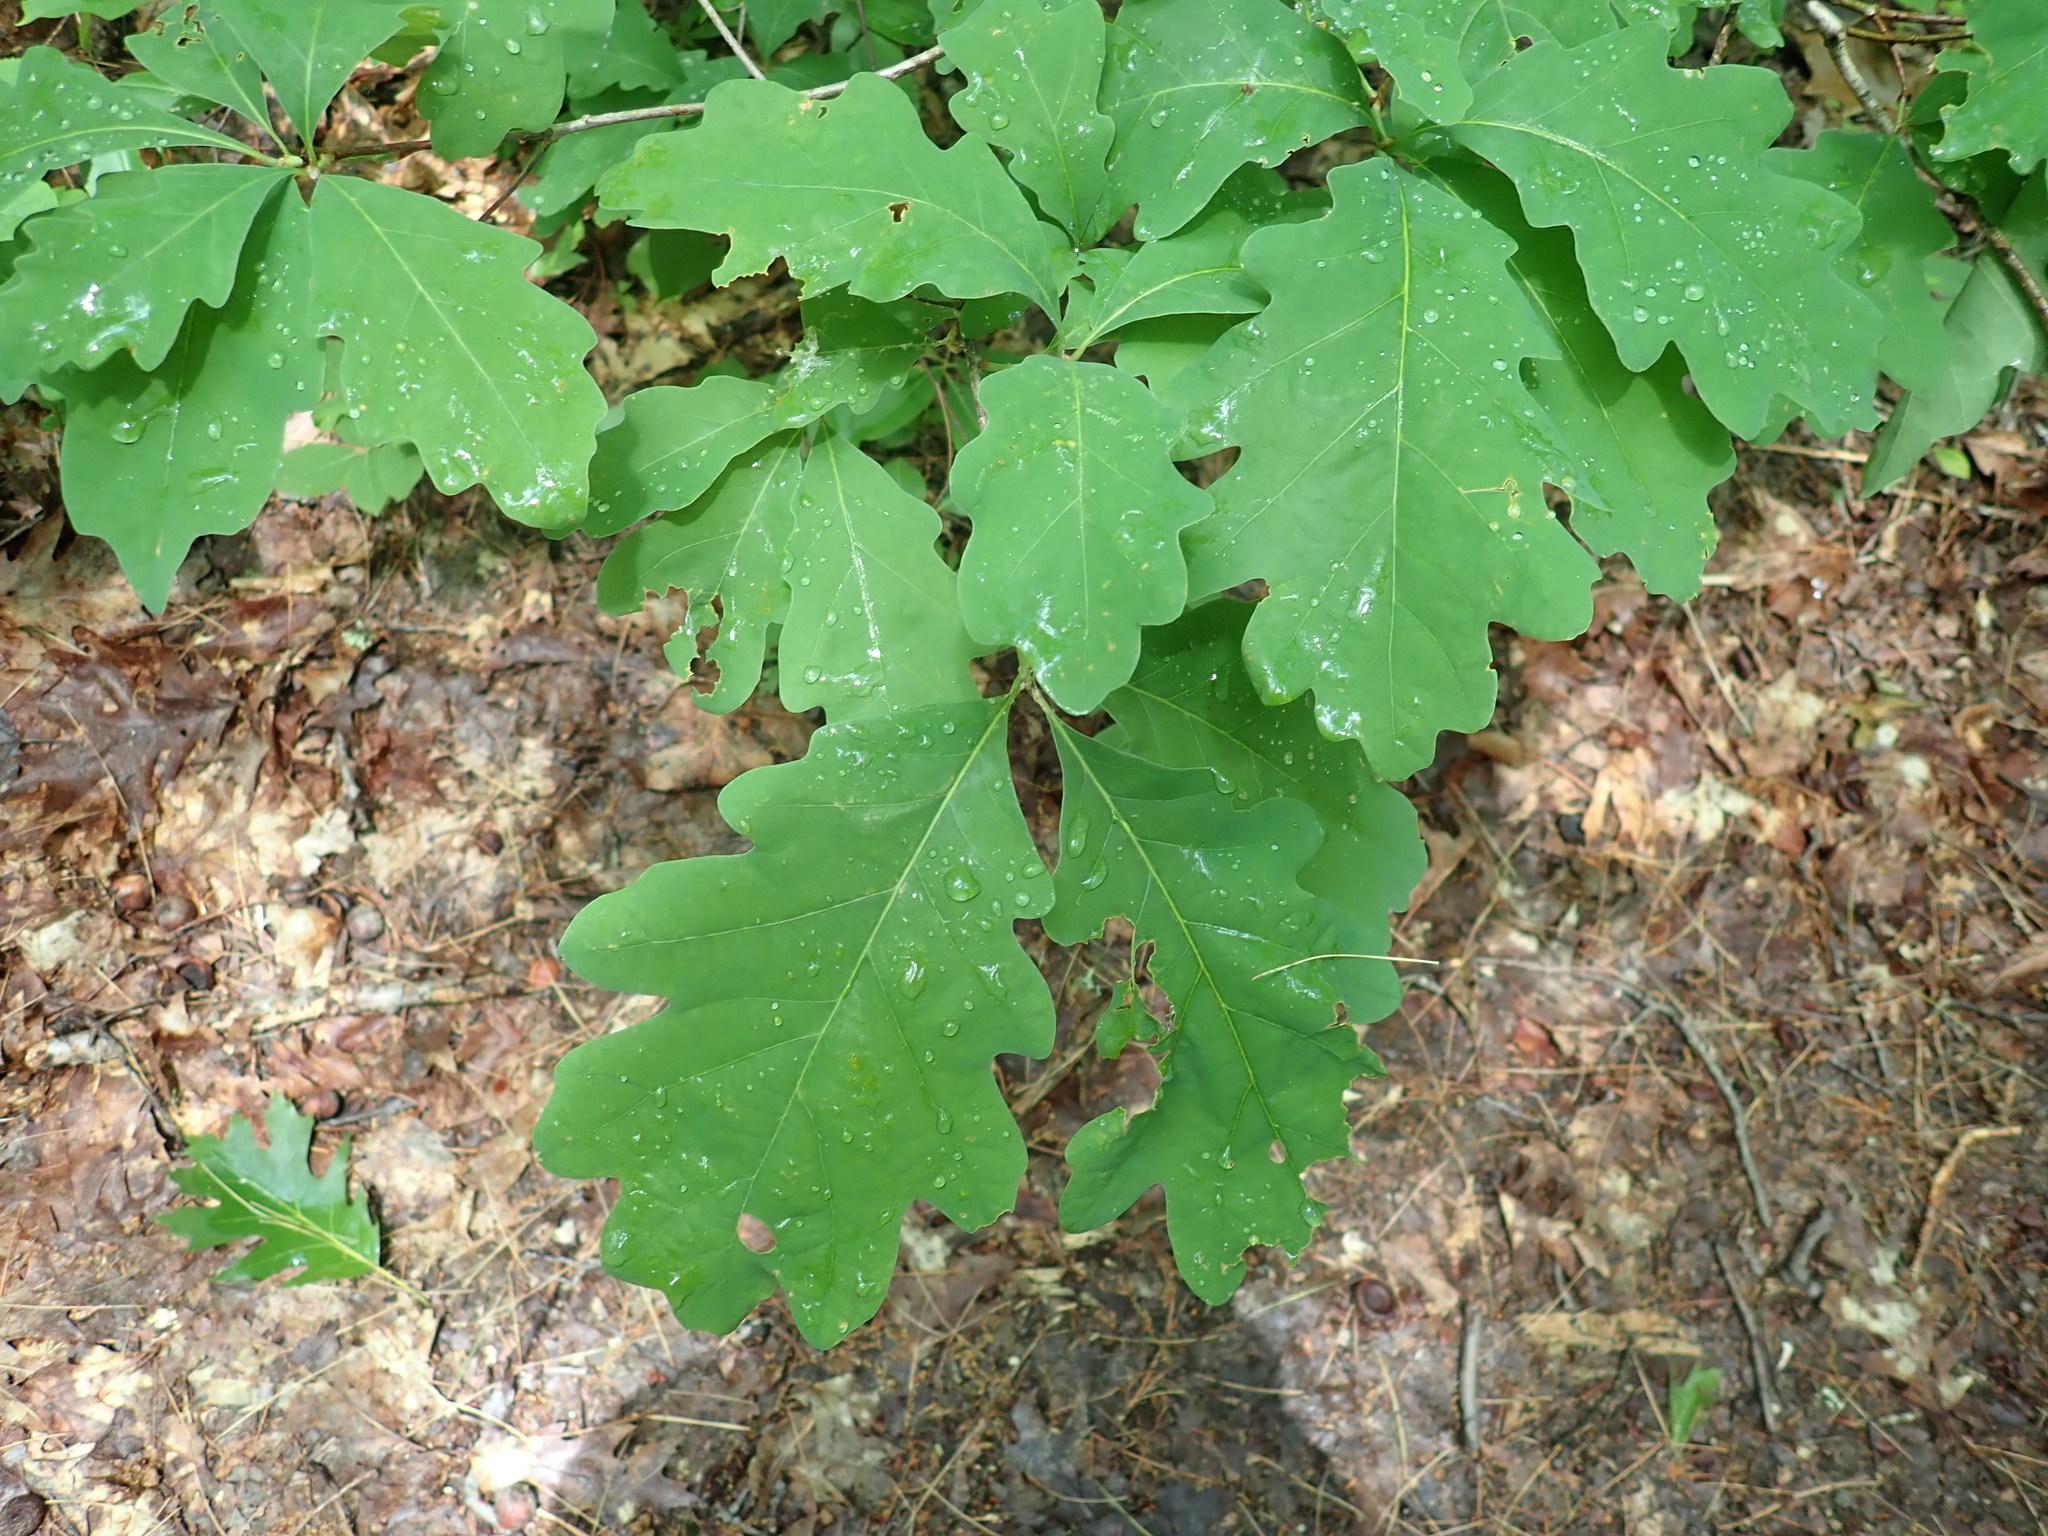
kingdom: Plantae
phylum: Tracheophyta
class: Magnoliopsida
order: Fagales
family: Fagaceae
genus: Quercus
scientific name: Quercus alba
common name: White oak
